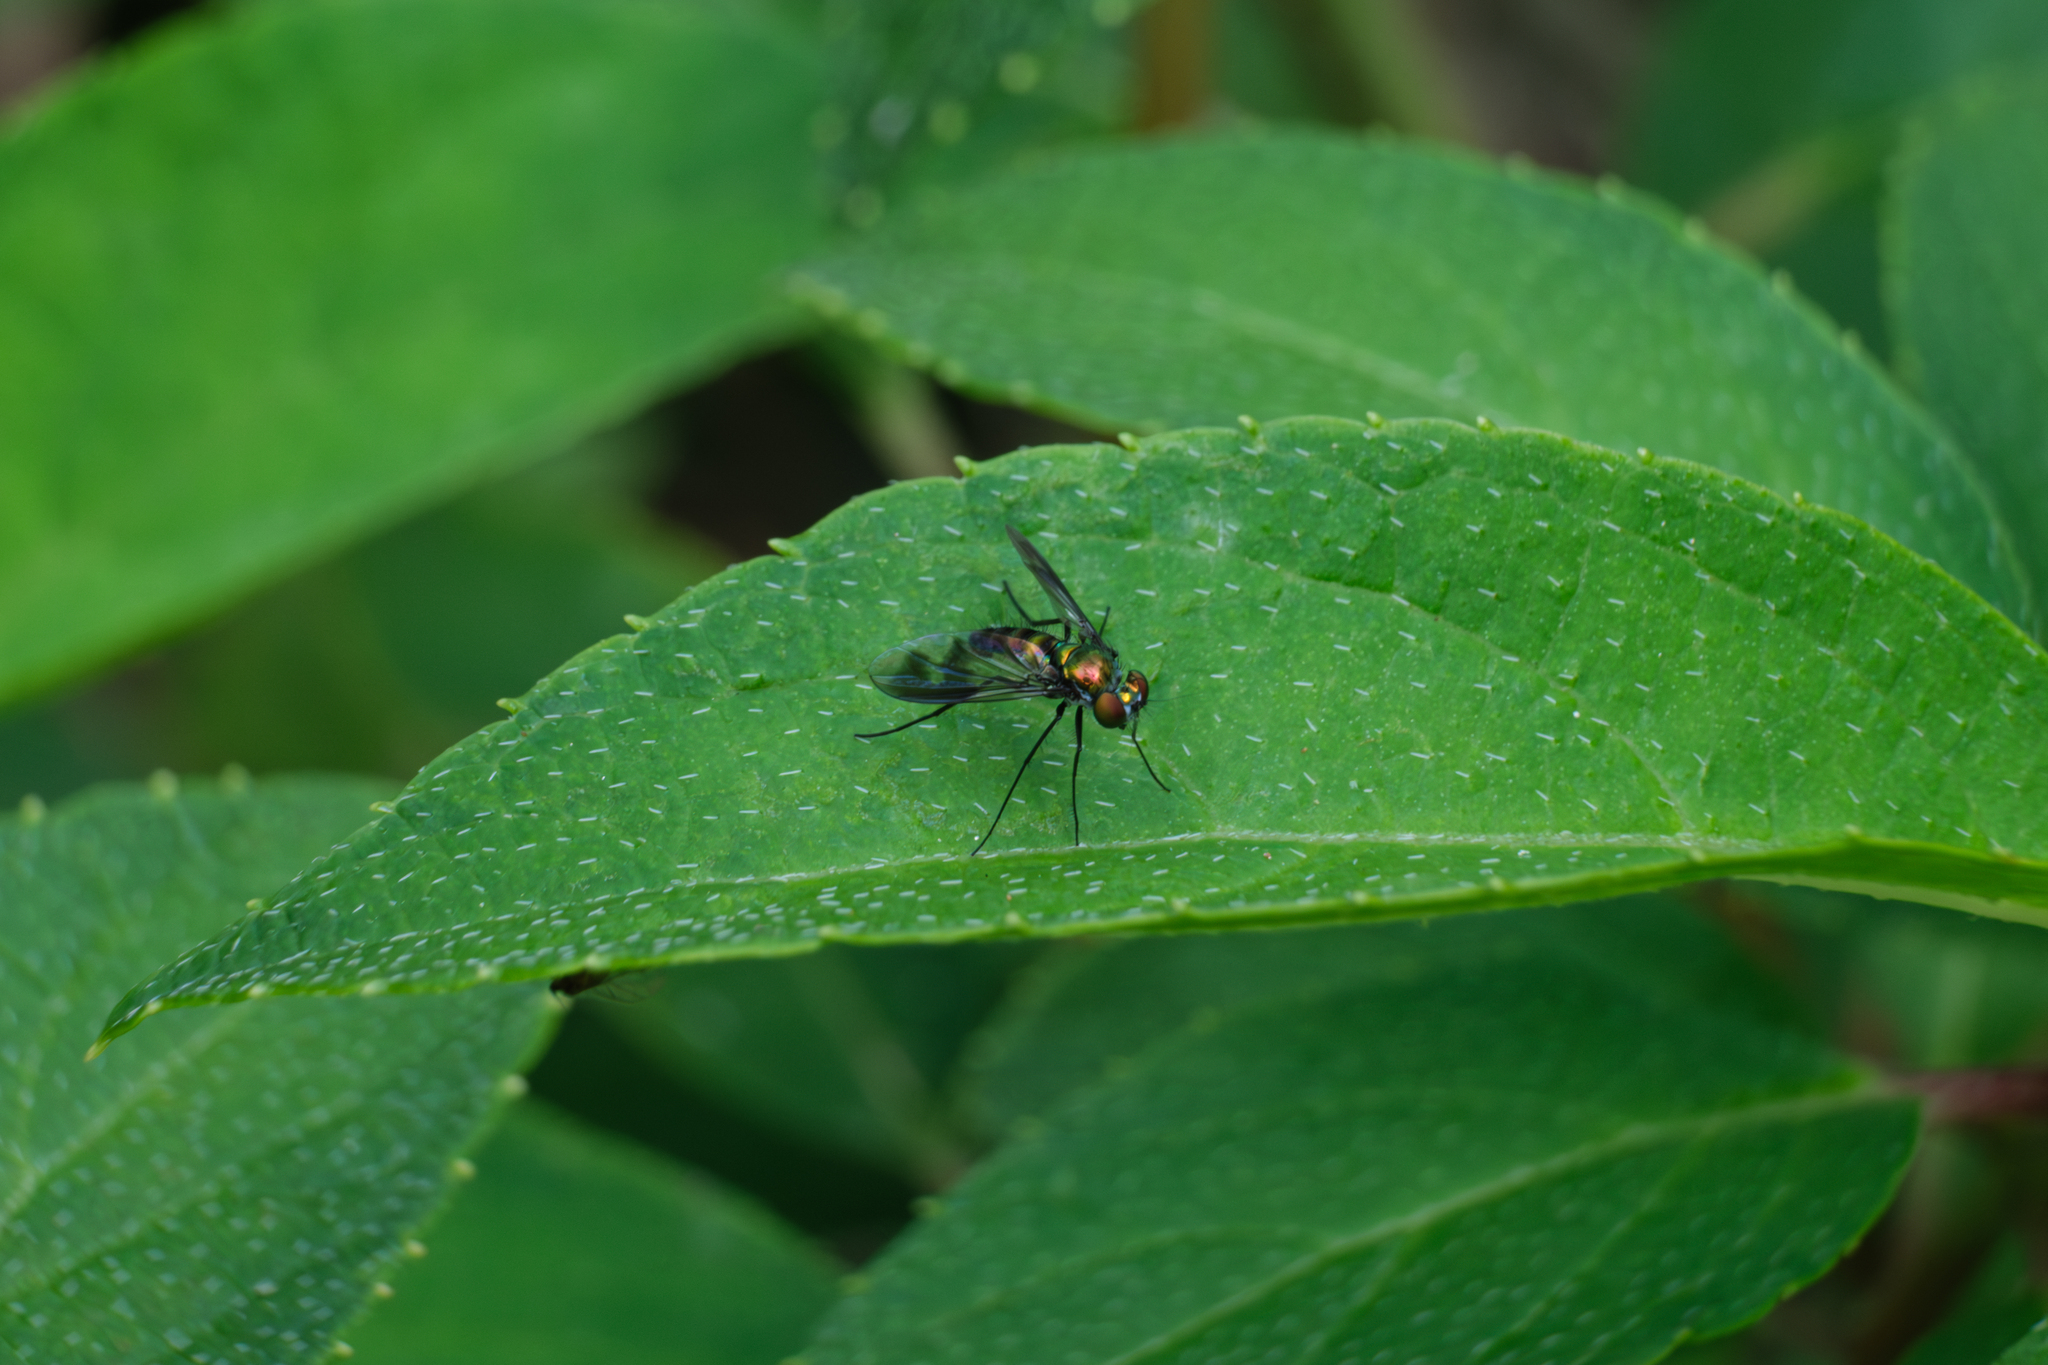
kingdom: Animalia
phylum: Arthropoda
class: Insecta
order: Diptera
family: Dolichopodidae
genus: Condylostylus
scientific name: Condylostylus patibulatus
